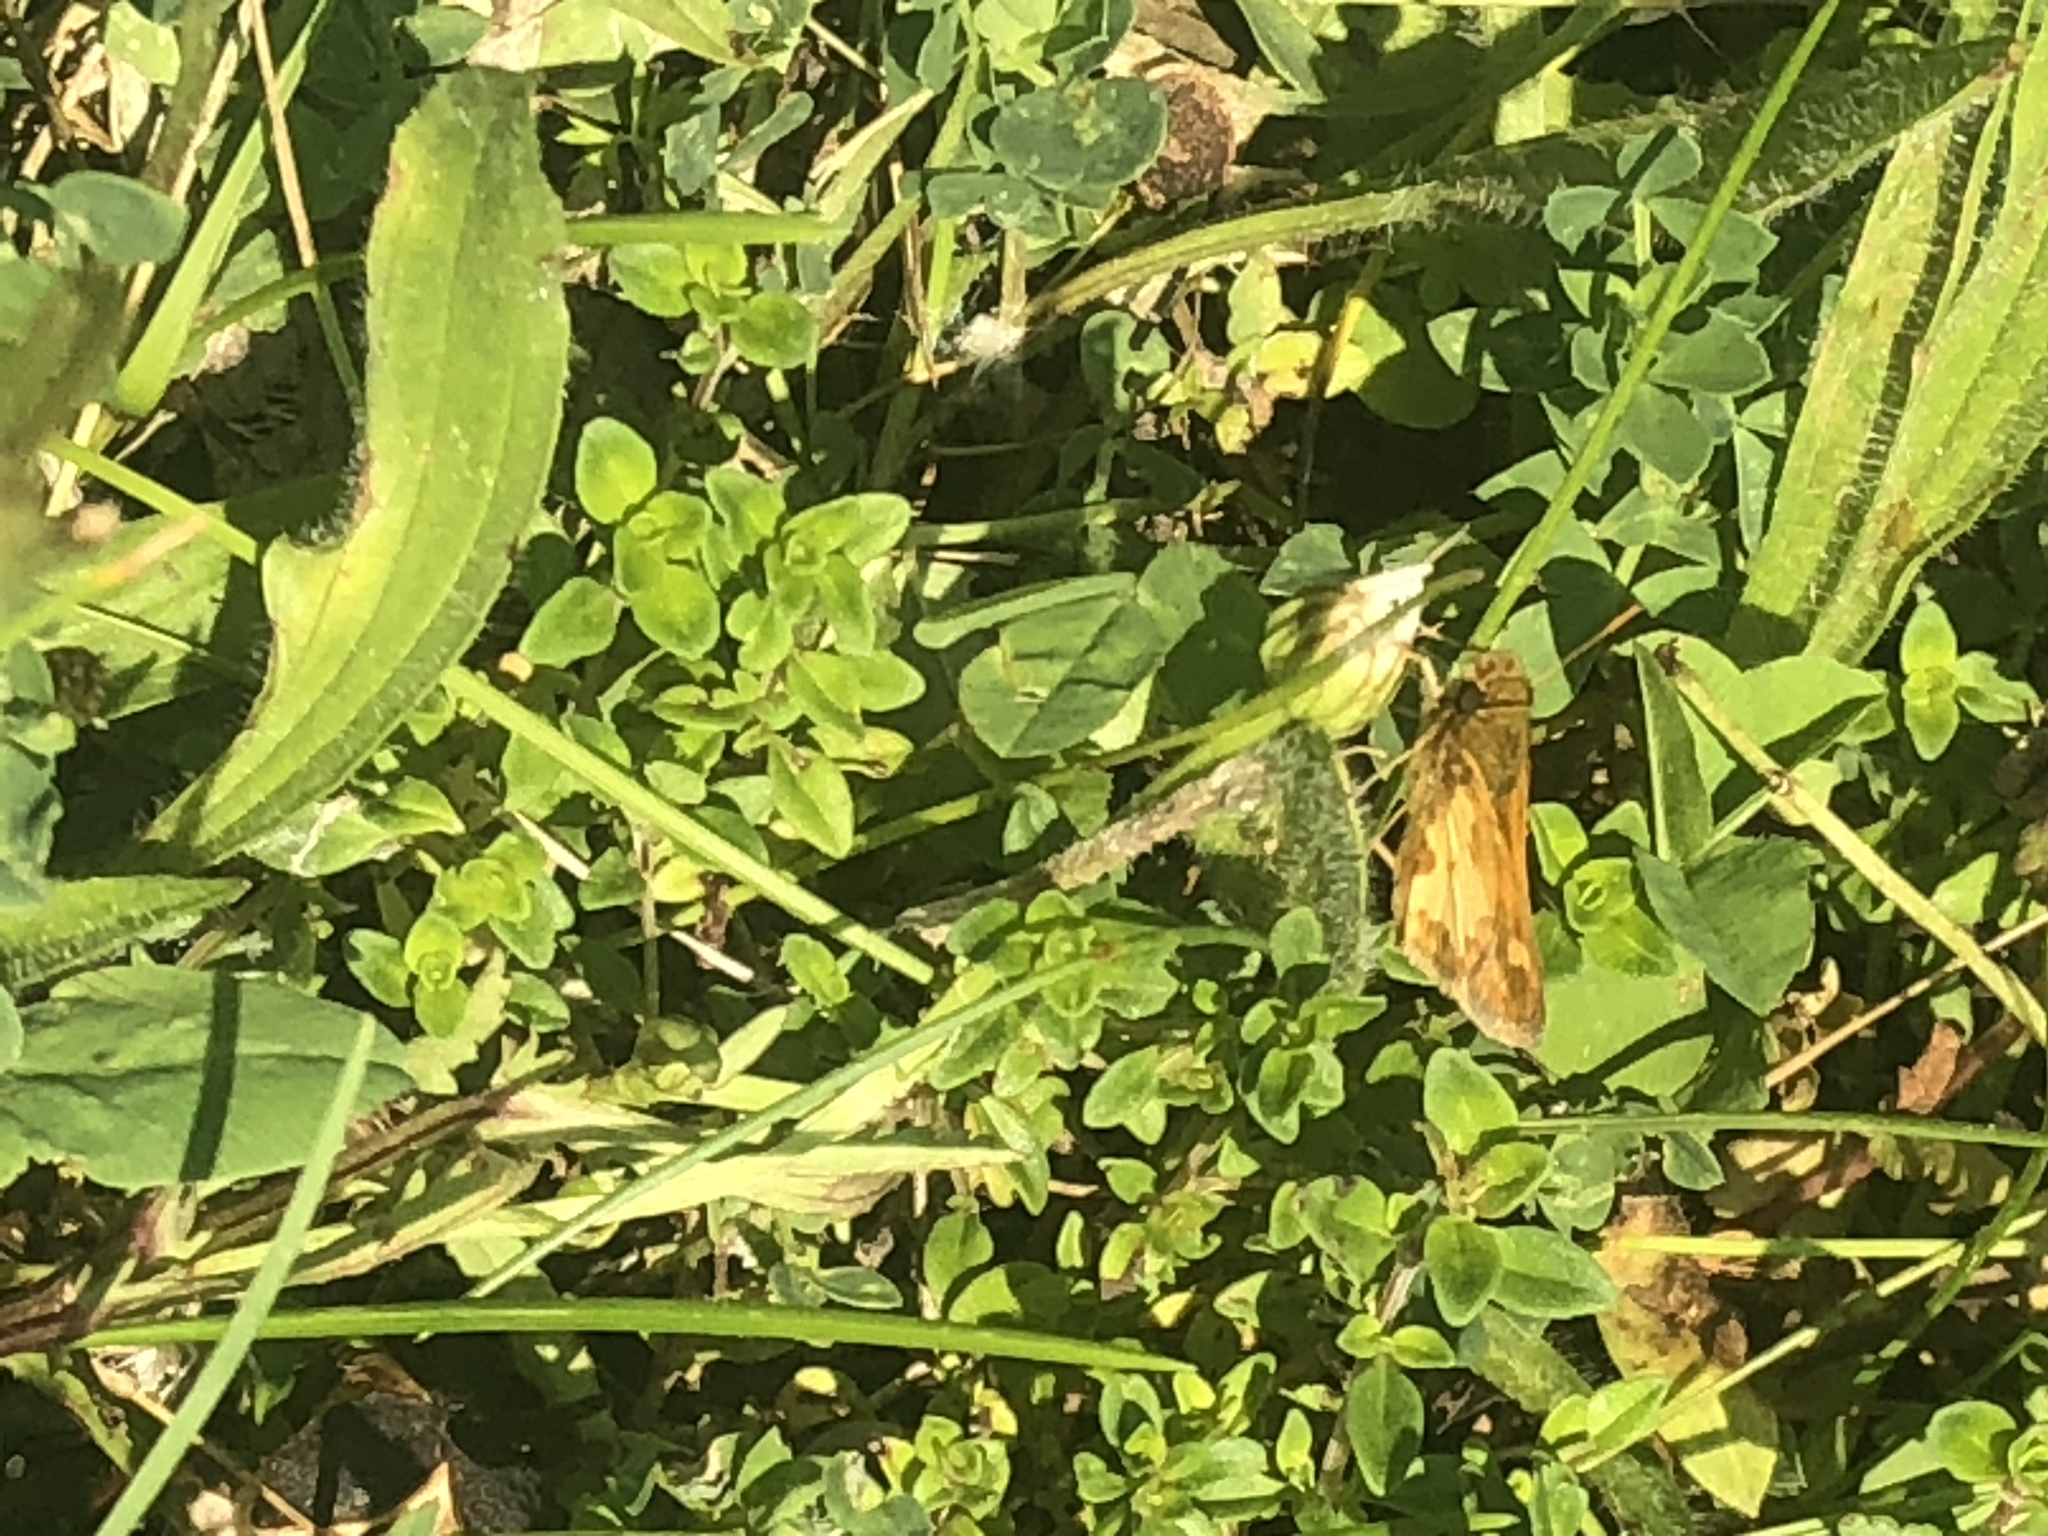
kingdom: Animalia
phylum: Arthropoda
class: Insecta
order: Lepidoptera
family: Hesperiidae
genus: Polites
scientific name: Polites coras
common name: Peck's skipper
